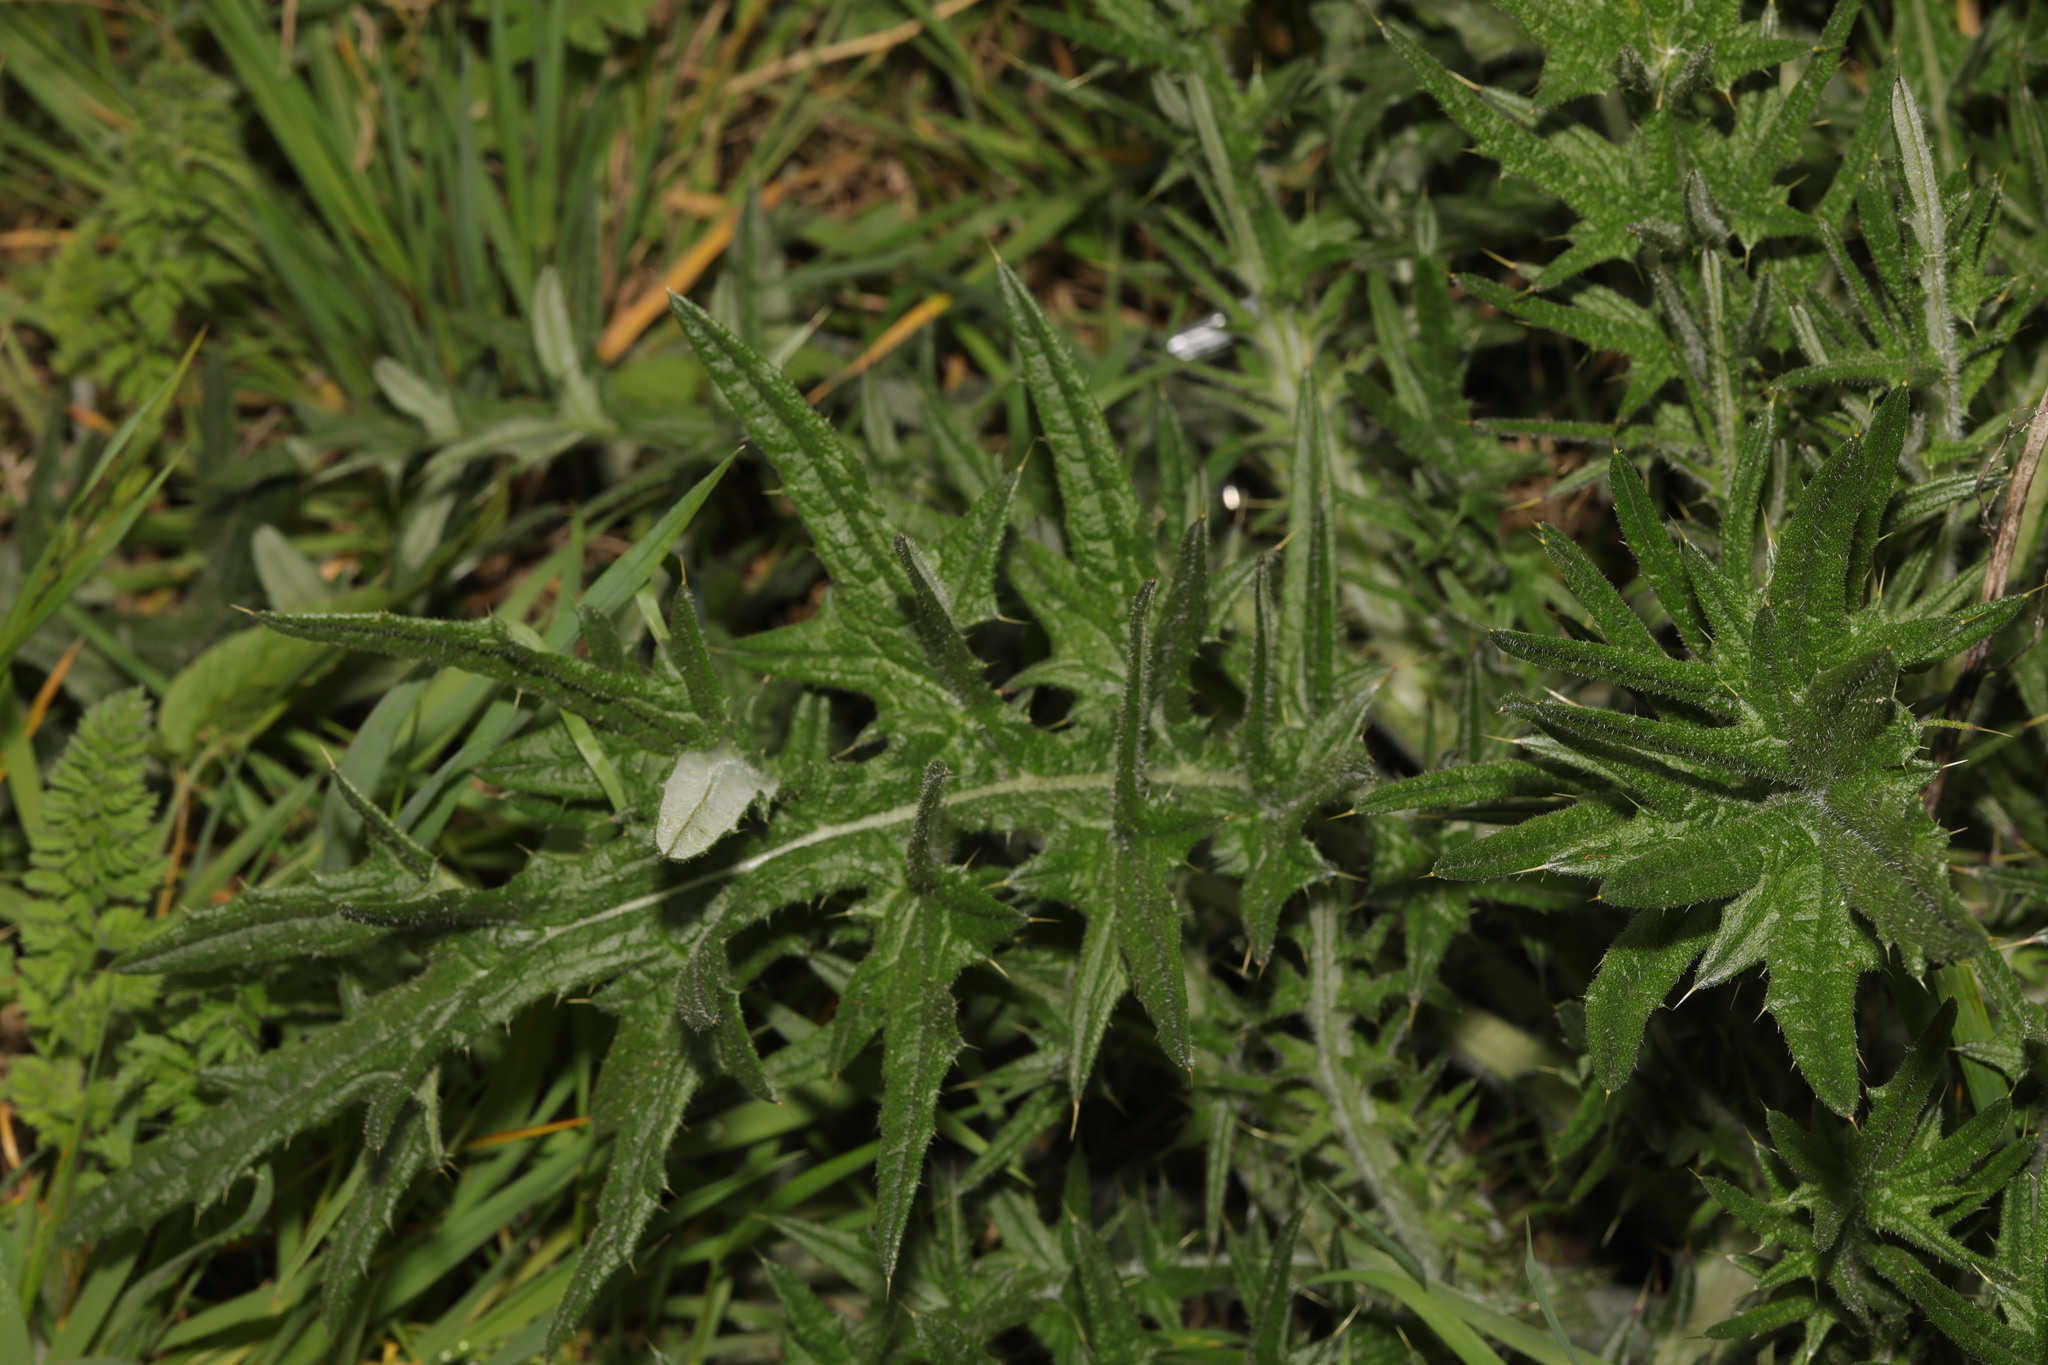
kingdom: Plantae
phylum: Tracheophyta
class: Magnoliopsida
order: Asterales
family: Asteraceae
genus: Cirsium
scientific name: Cirsium vulgare
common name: Bull thistle
